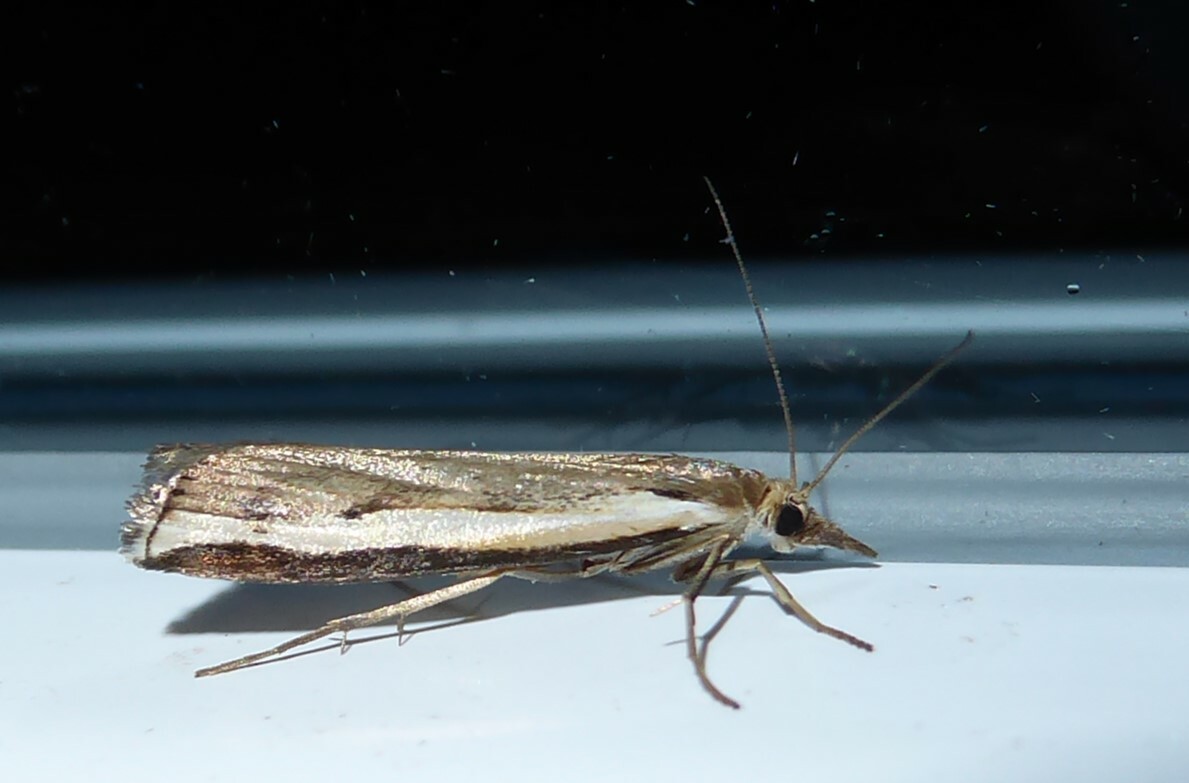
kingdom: Animalia
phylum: Arthropoda
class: Insecta
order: Lepidoptera
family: Crambidae
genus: Orocrambus
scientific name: Orocrambus flexuosellus
